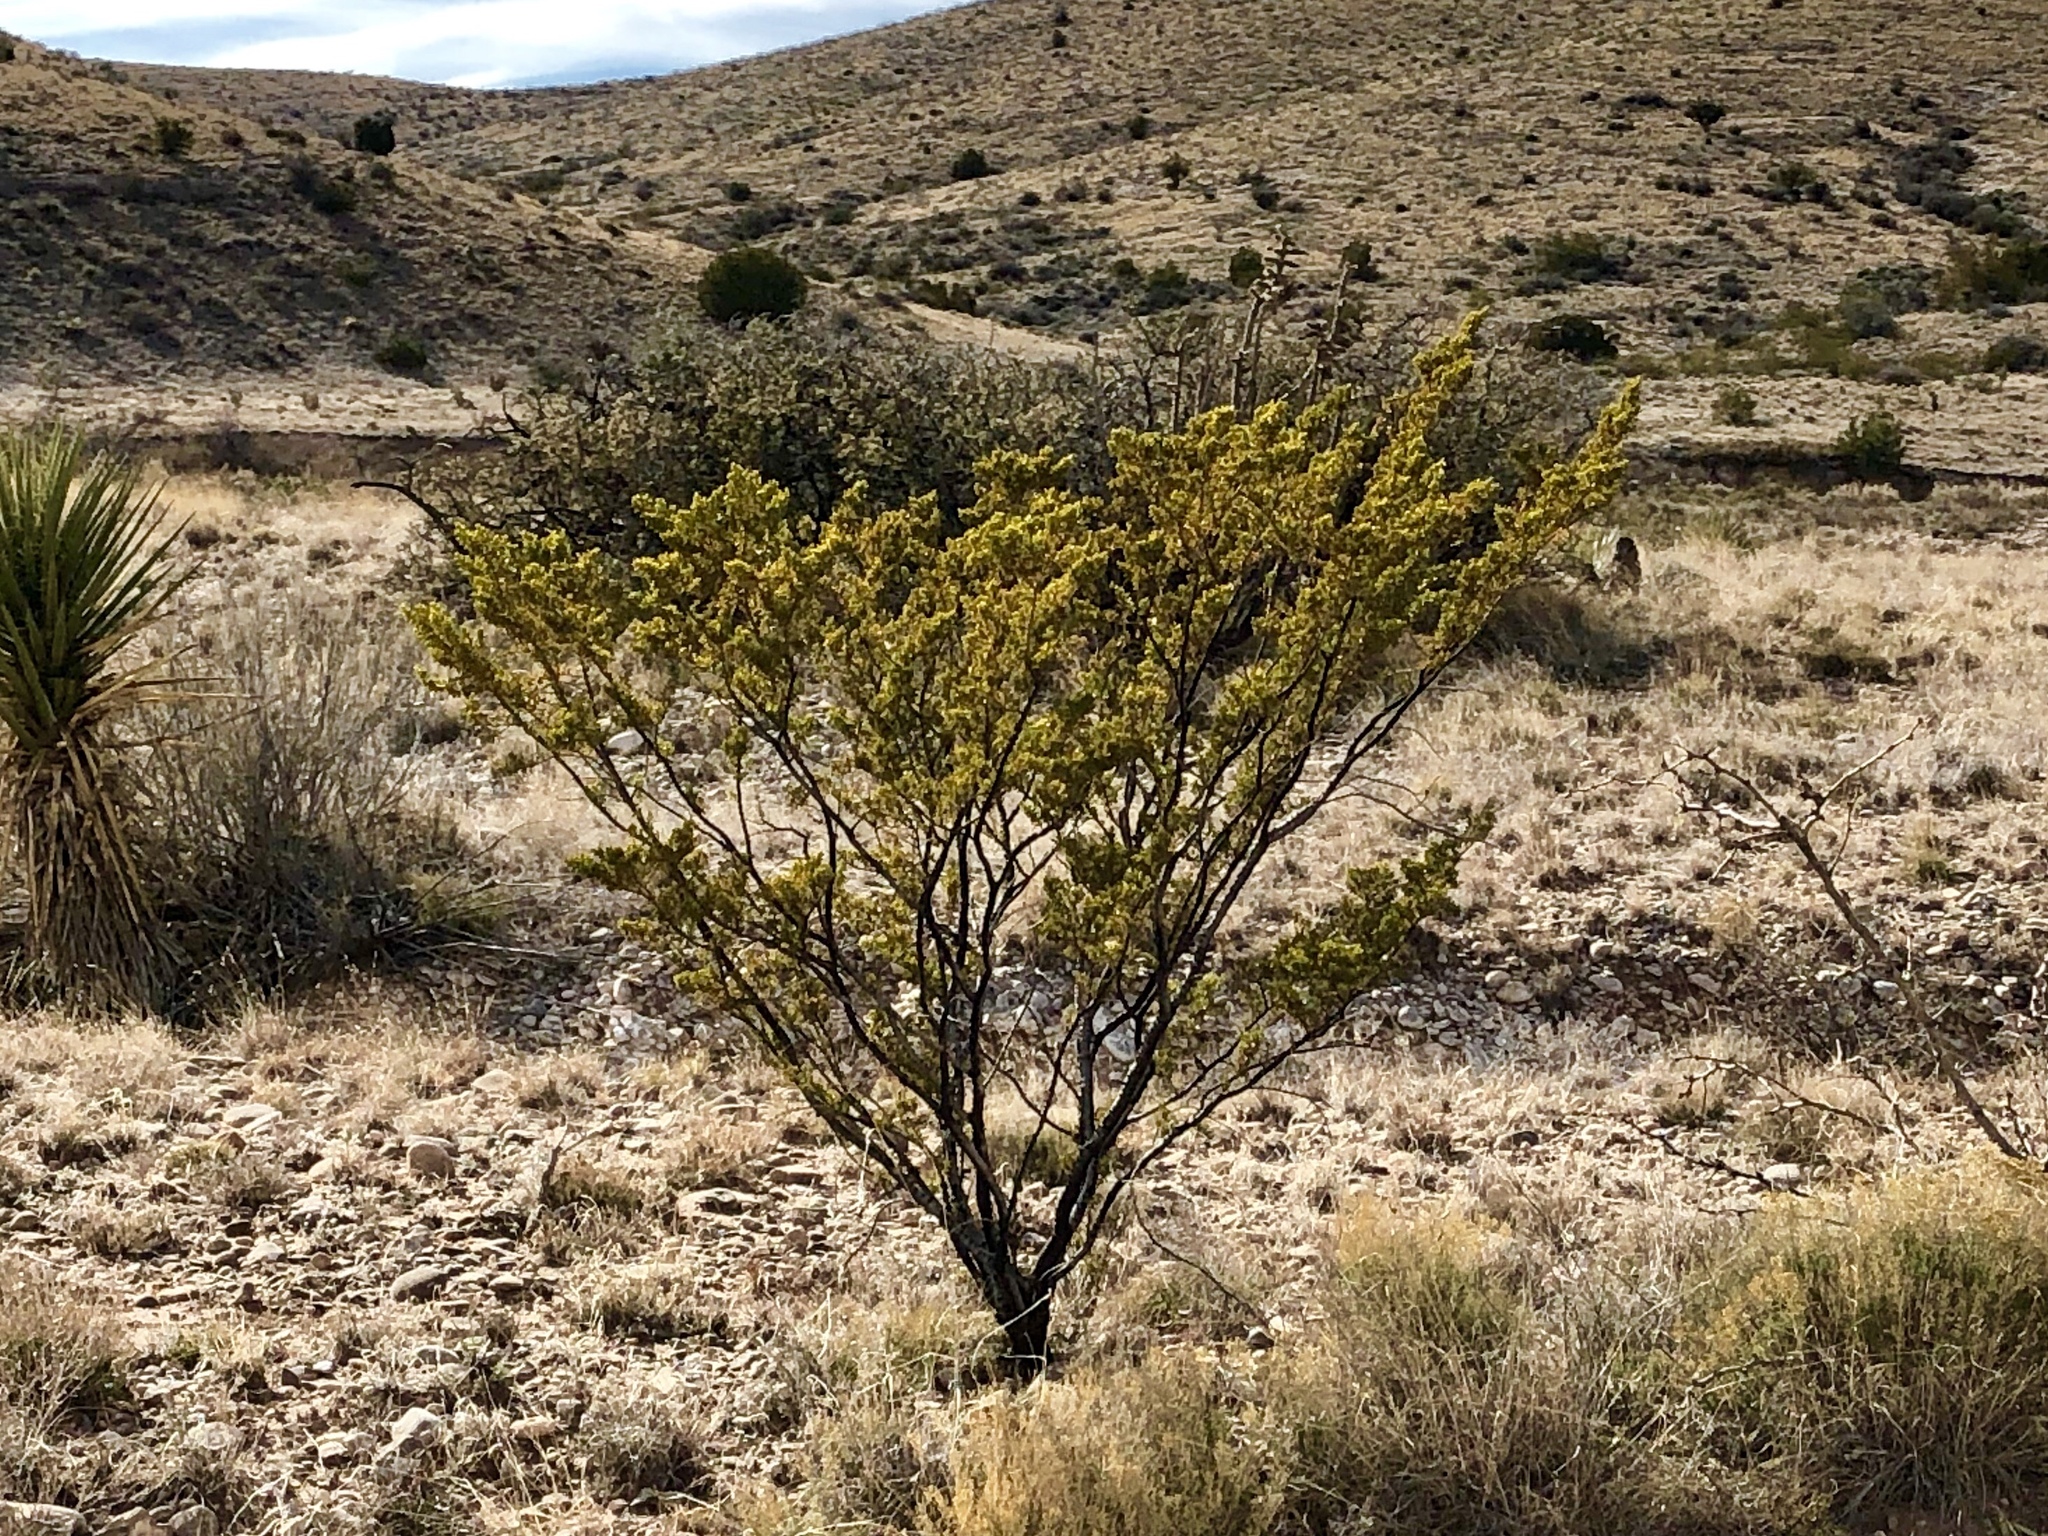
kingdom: Plantae
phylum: Tracheophyta
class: Magnoliopsida
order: Zygophyllales
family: Zygophyllaceae
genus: Larrea
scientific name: Larrea tridentata
